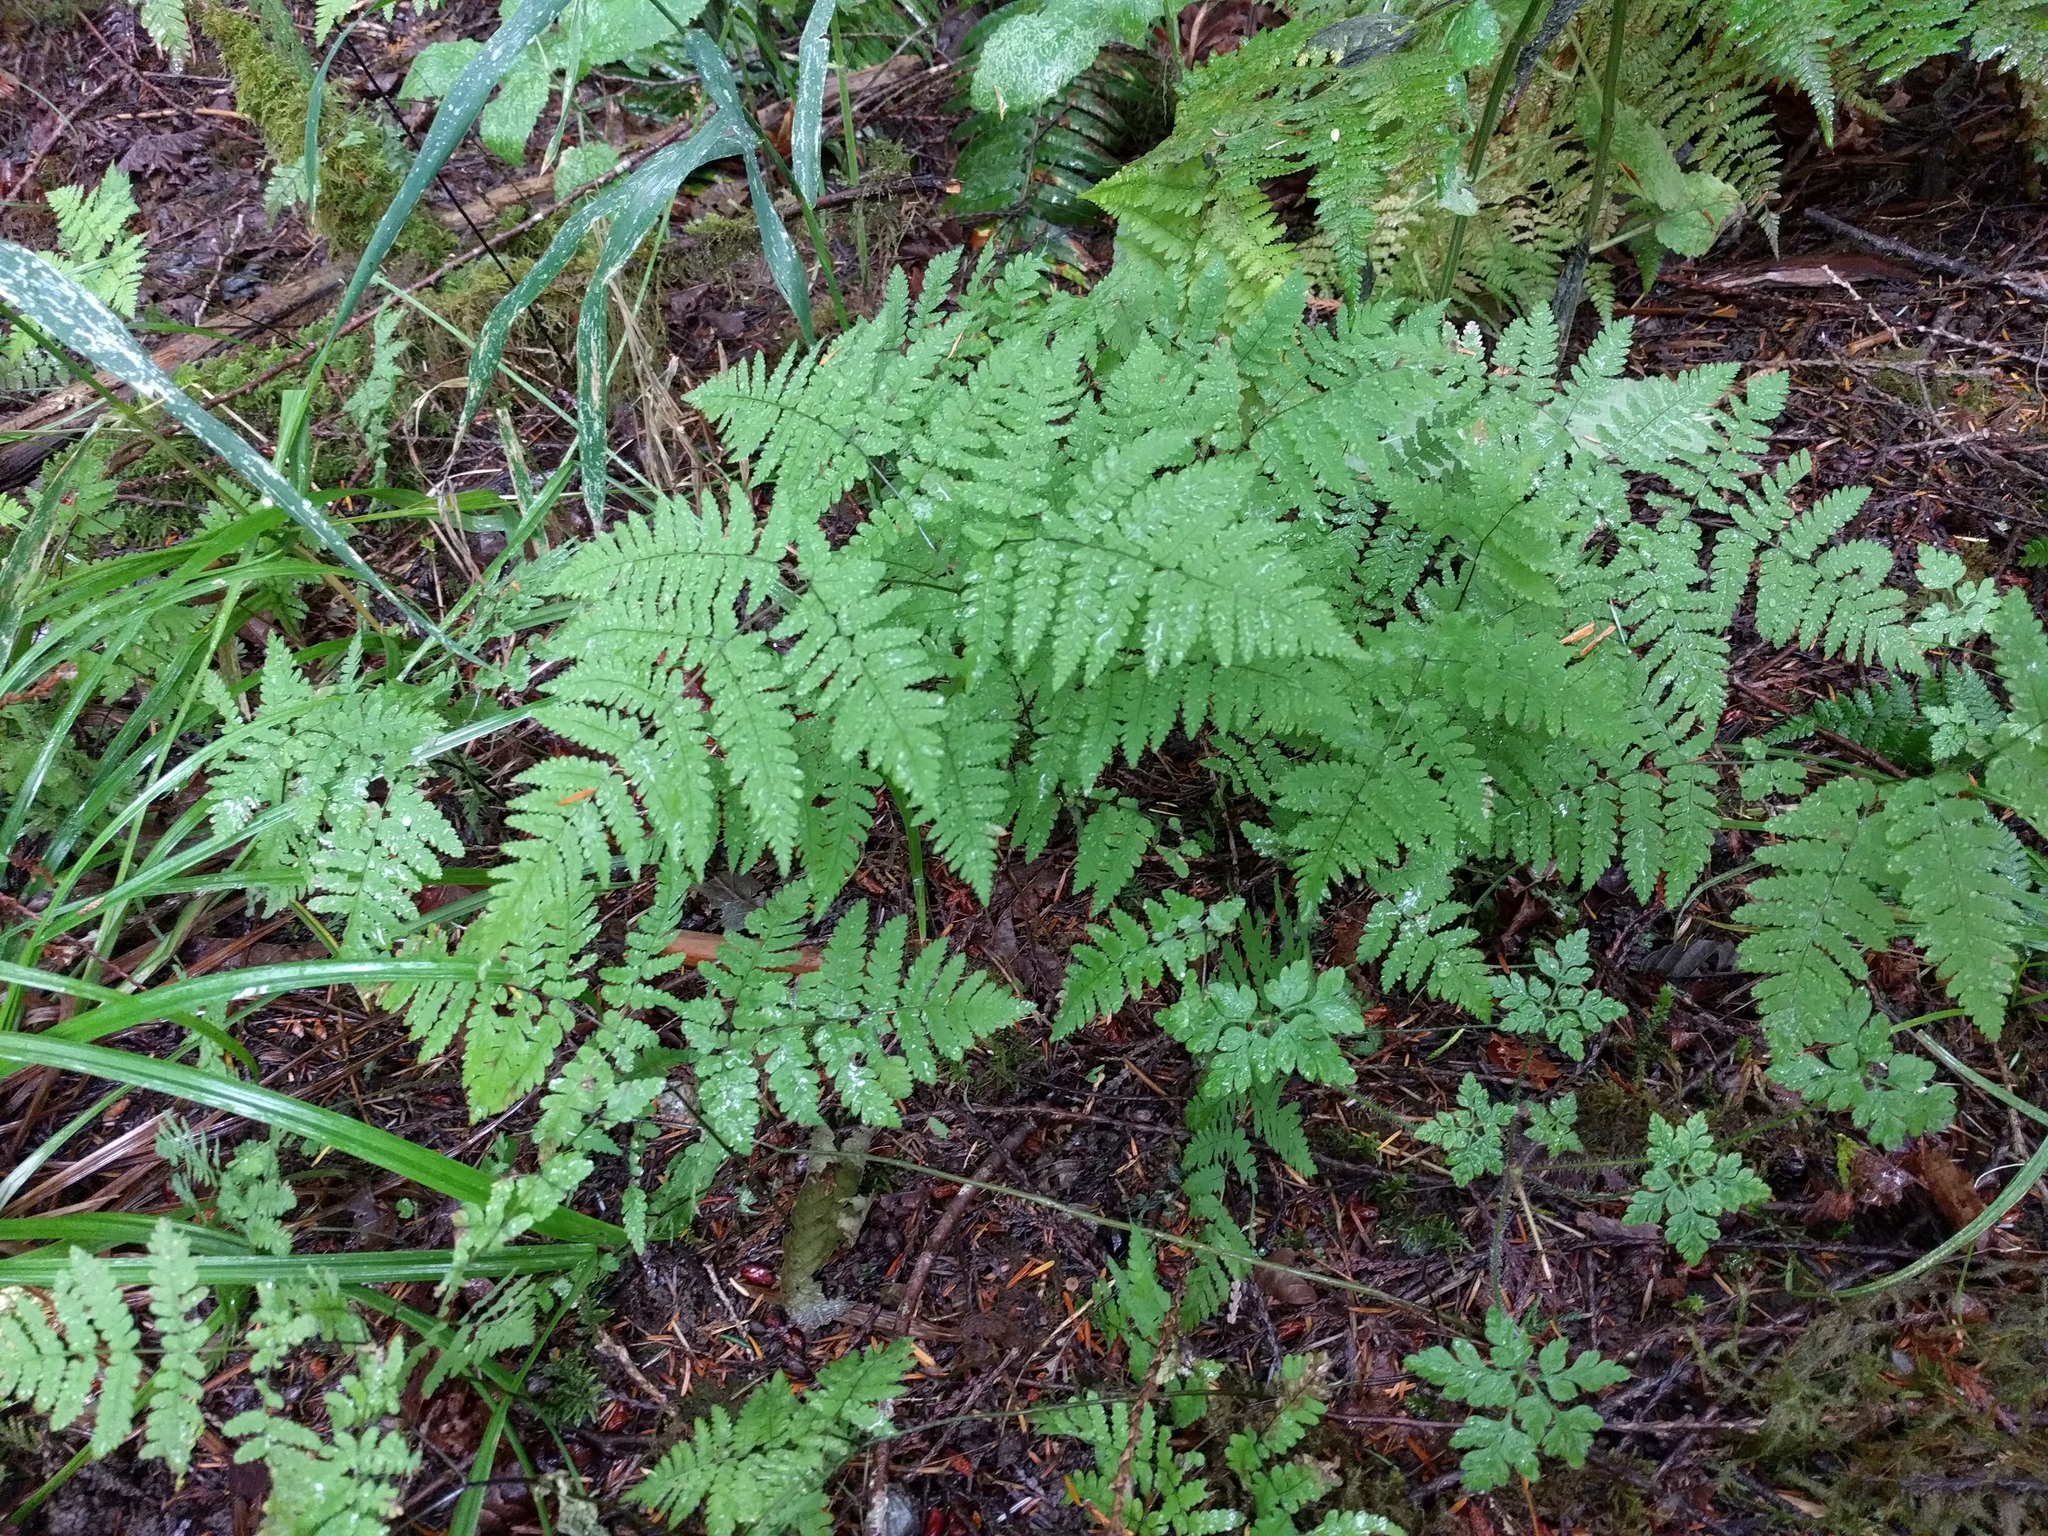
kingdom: Plantae
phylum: Tracheophyta
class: Polypodiopsida
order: Polypodiales
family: Cystopteridaceae
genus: Gymnocarpium
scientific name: Gymnocarpium disjunctum
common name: Western oak fern
